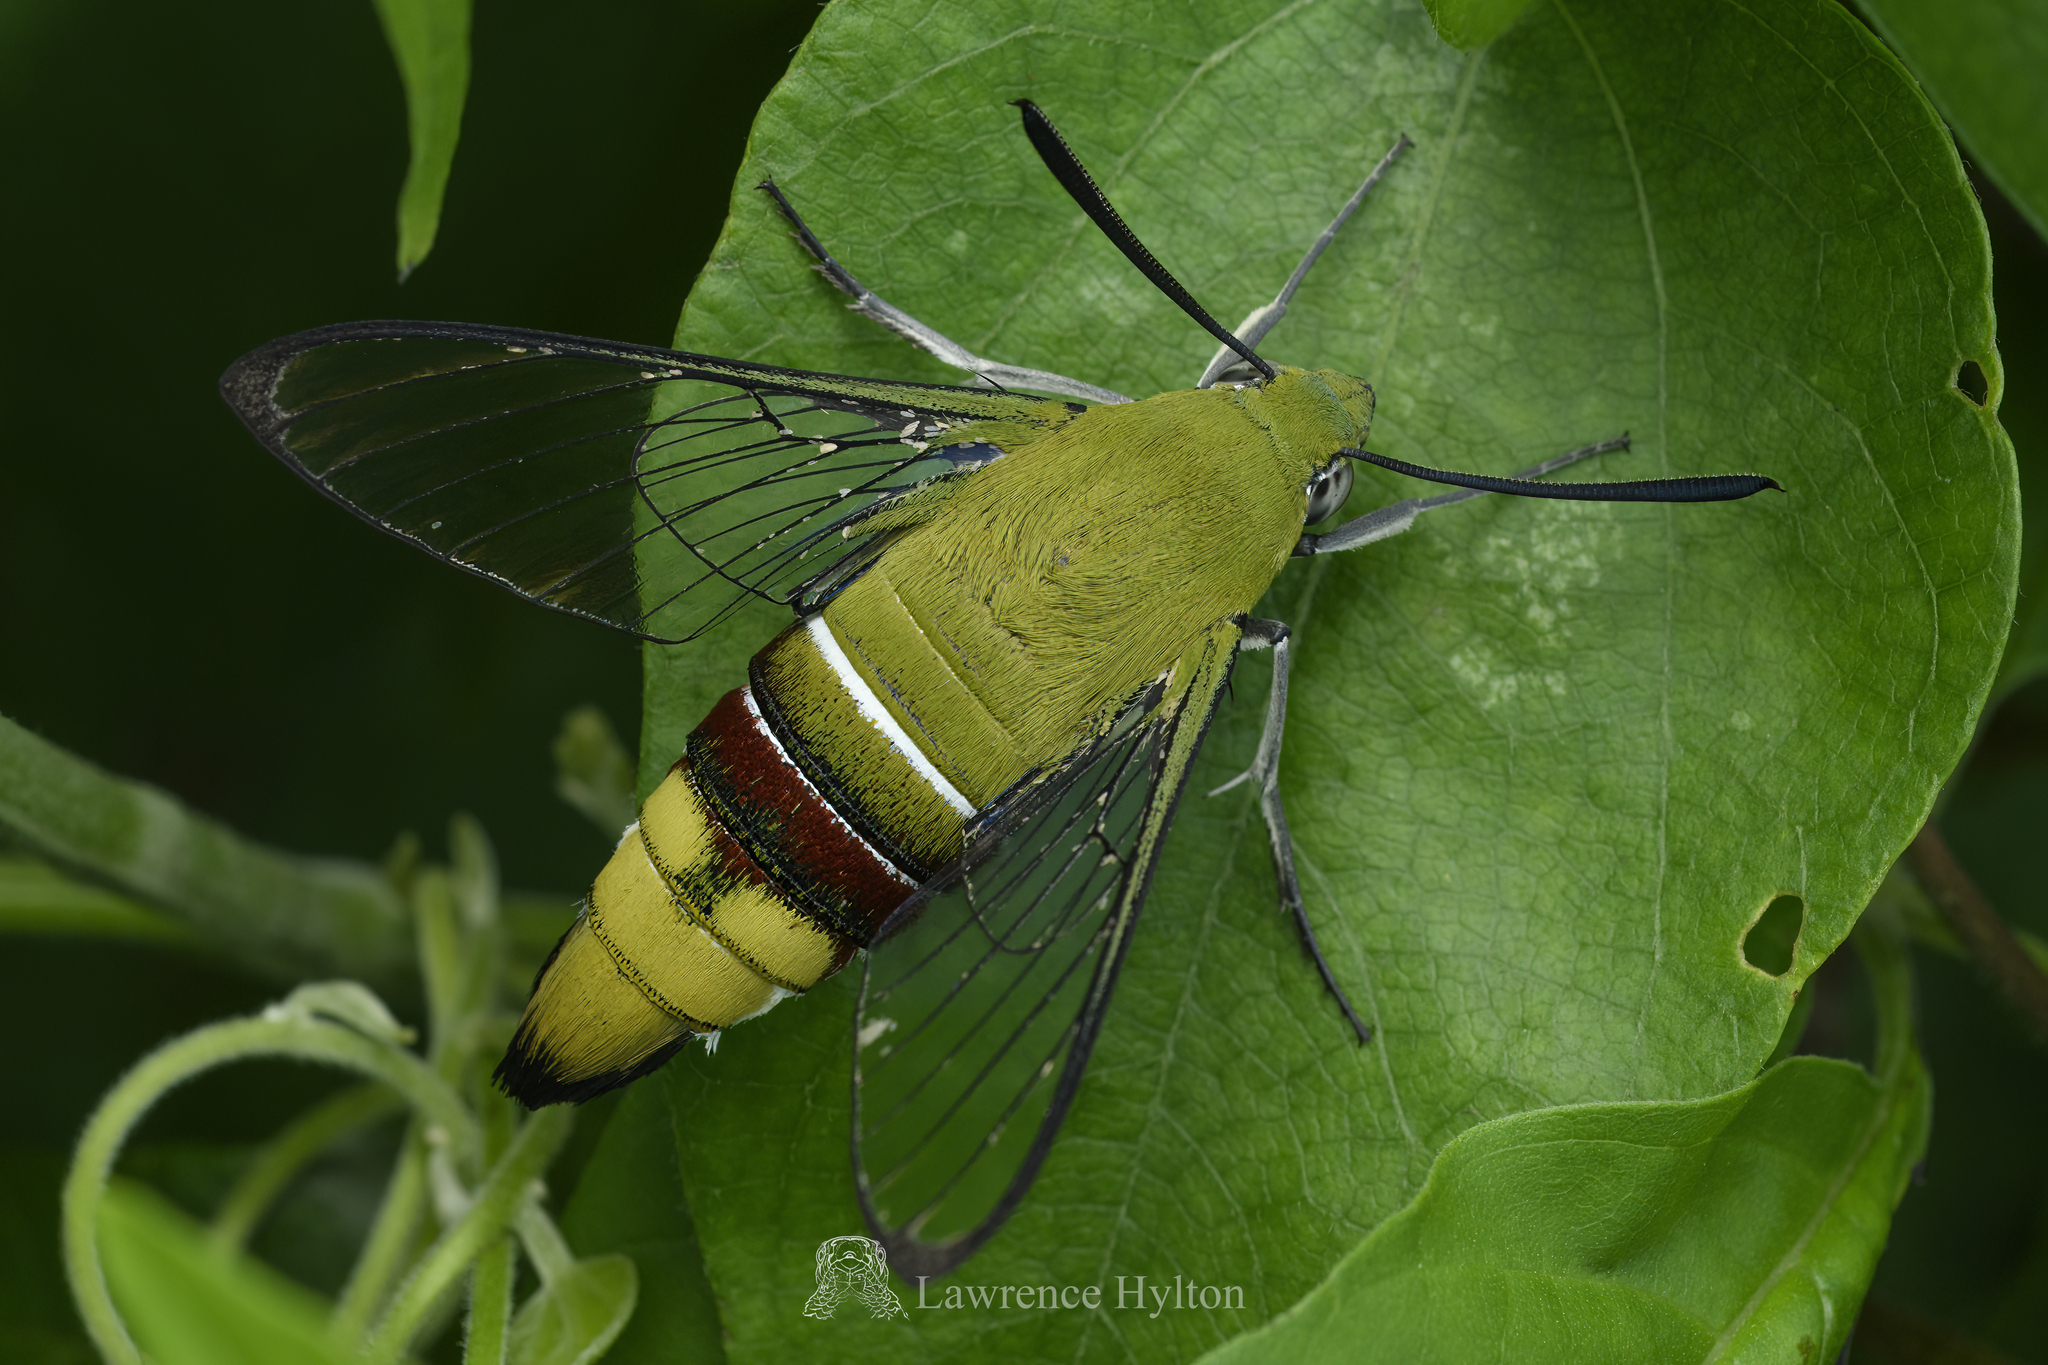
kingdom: Animalia
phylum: Arthropoda
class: Insecta
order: Lepidoptera
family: Sphingidae
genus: Cephonodes
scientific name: Cephonodes hylas
